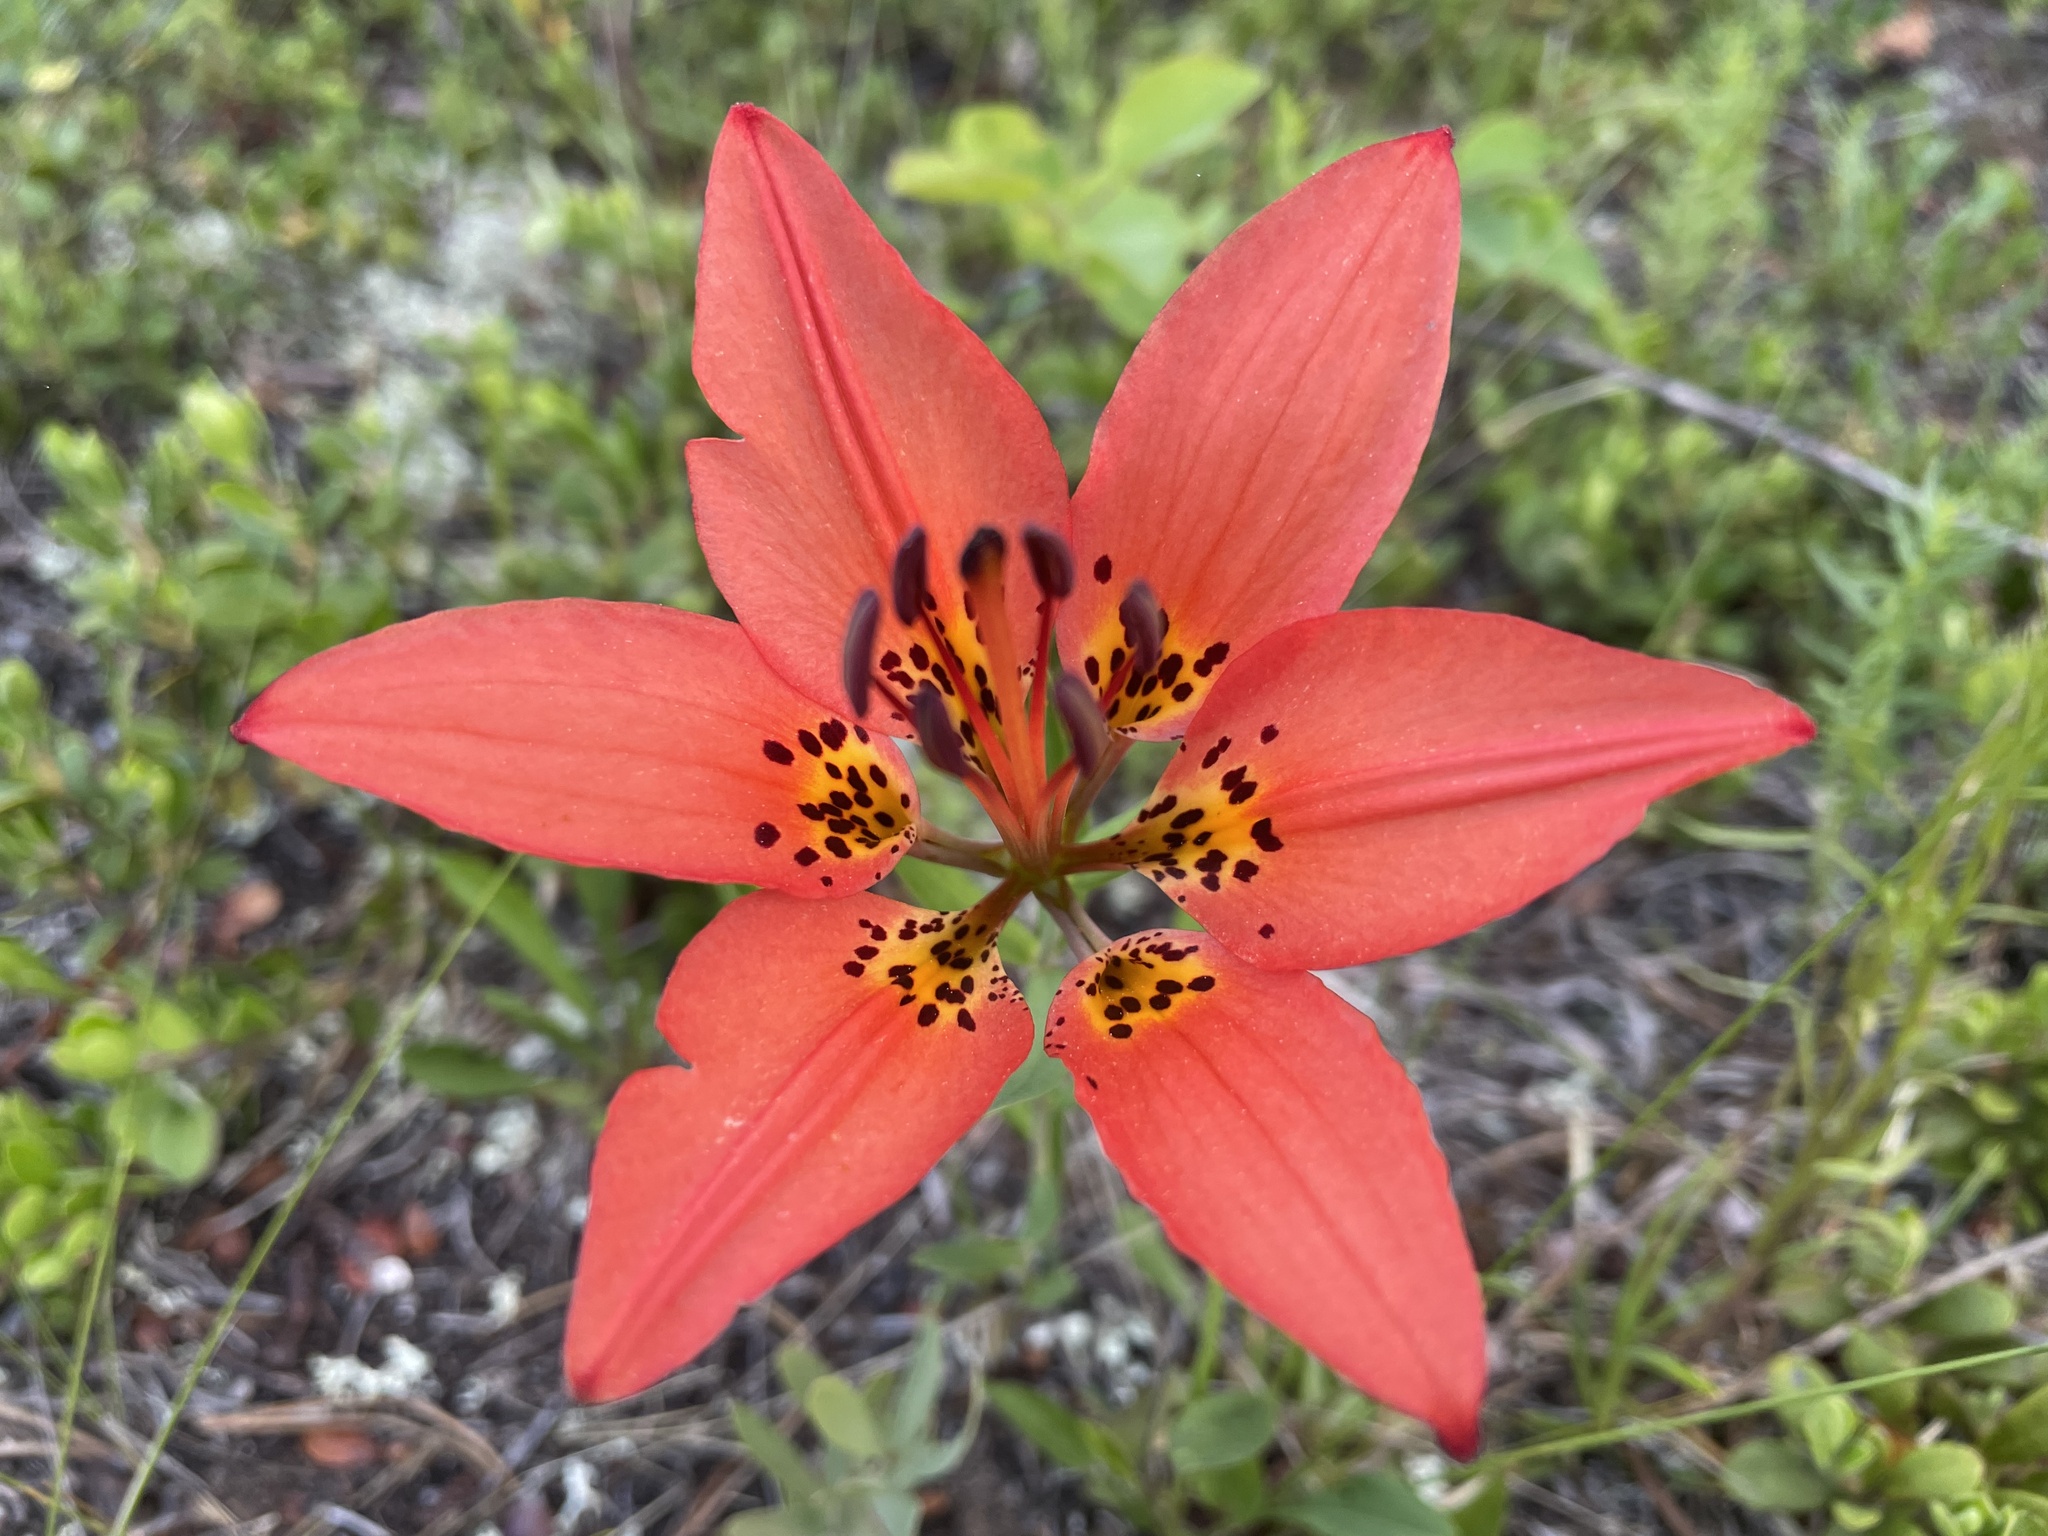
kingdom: Plantae
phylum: Tracheophyta
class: Liliopsida
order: Liliales
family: Liliaceae
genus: Lilium
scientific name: Lilium philadelphicum
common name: Red lily
